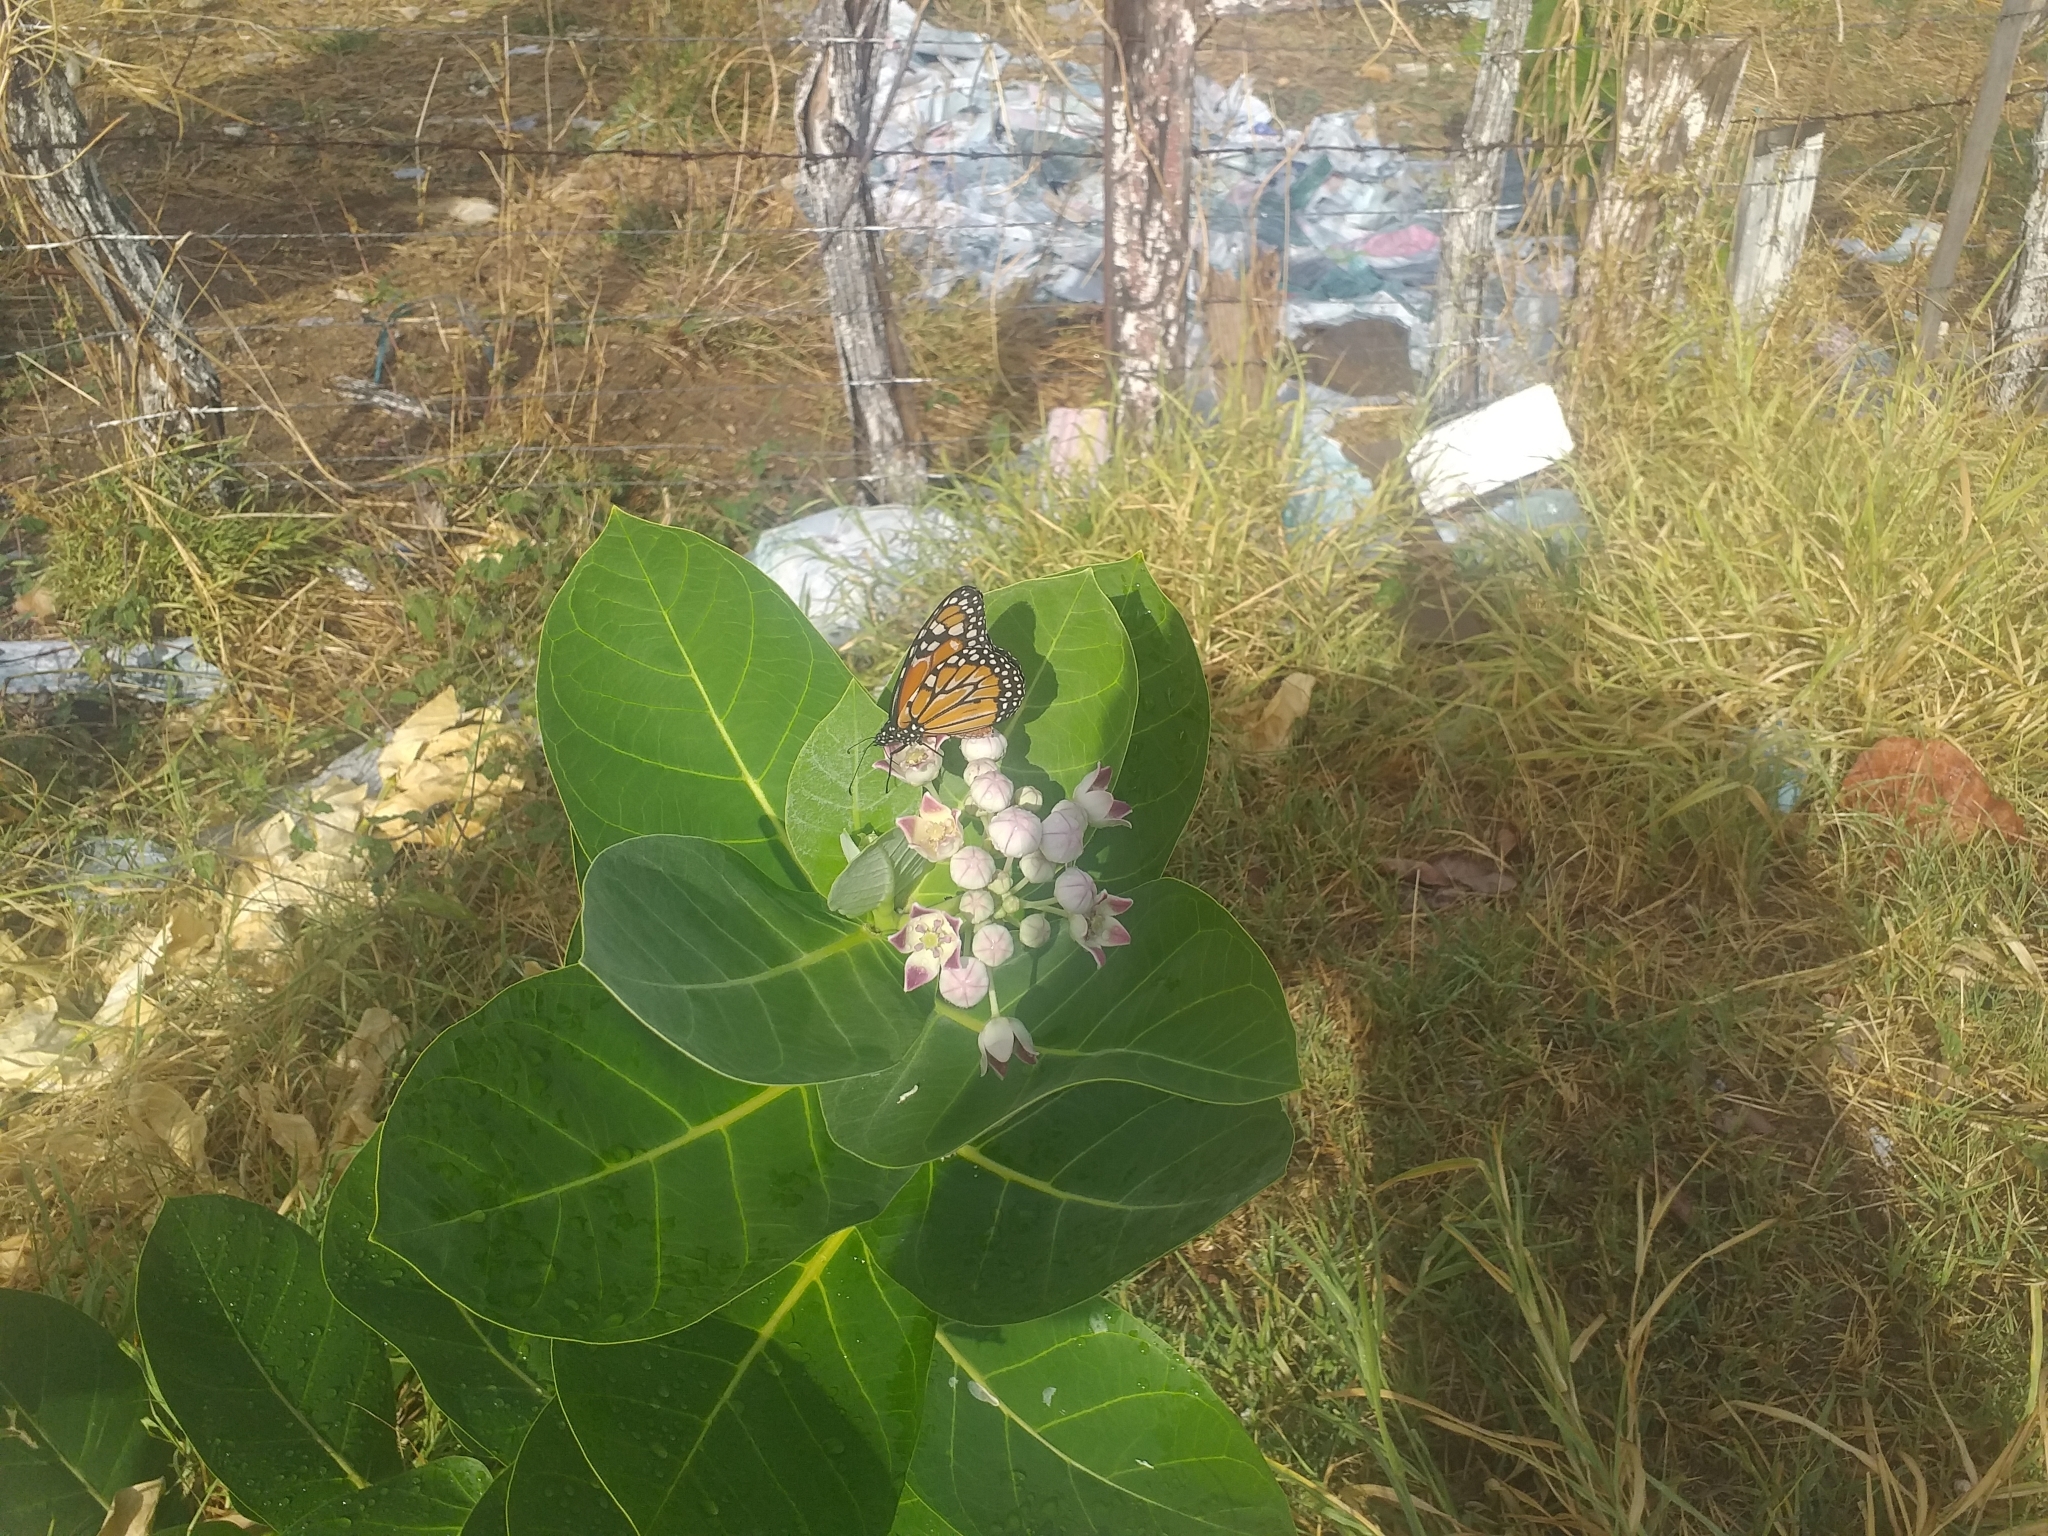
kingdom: Animalia
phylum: Arthropoda
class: Insecta
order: Lepidoptera
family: Nymphalidae
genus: Danaus
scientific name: Danaus erippus
